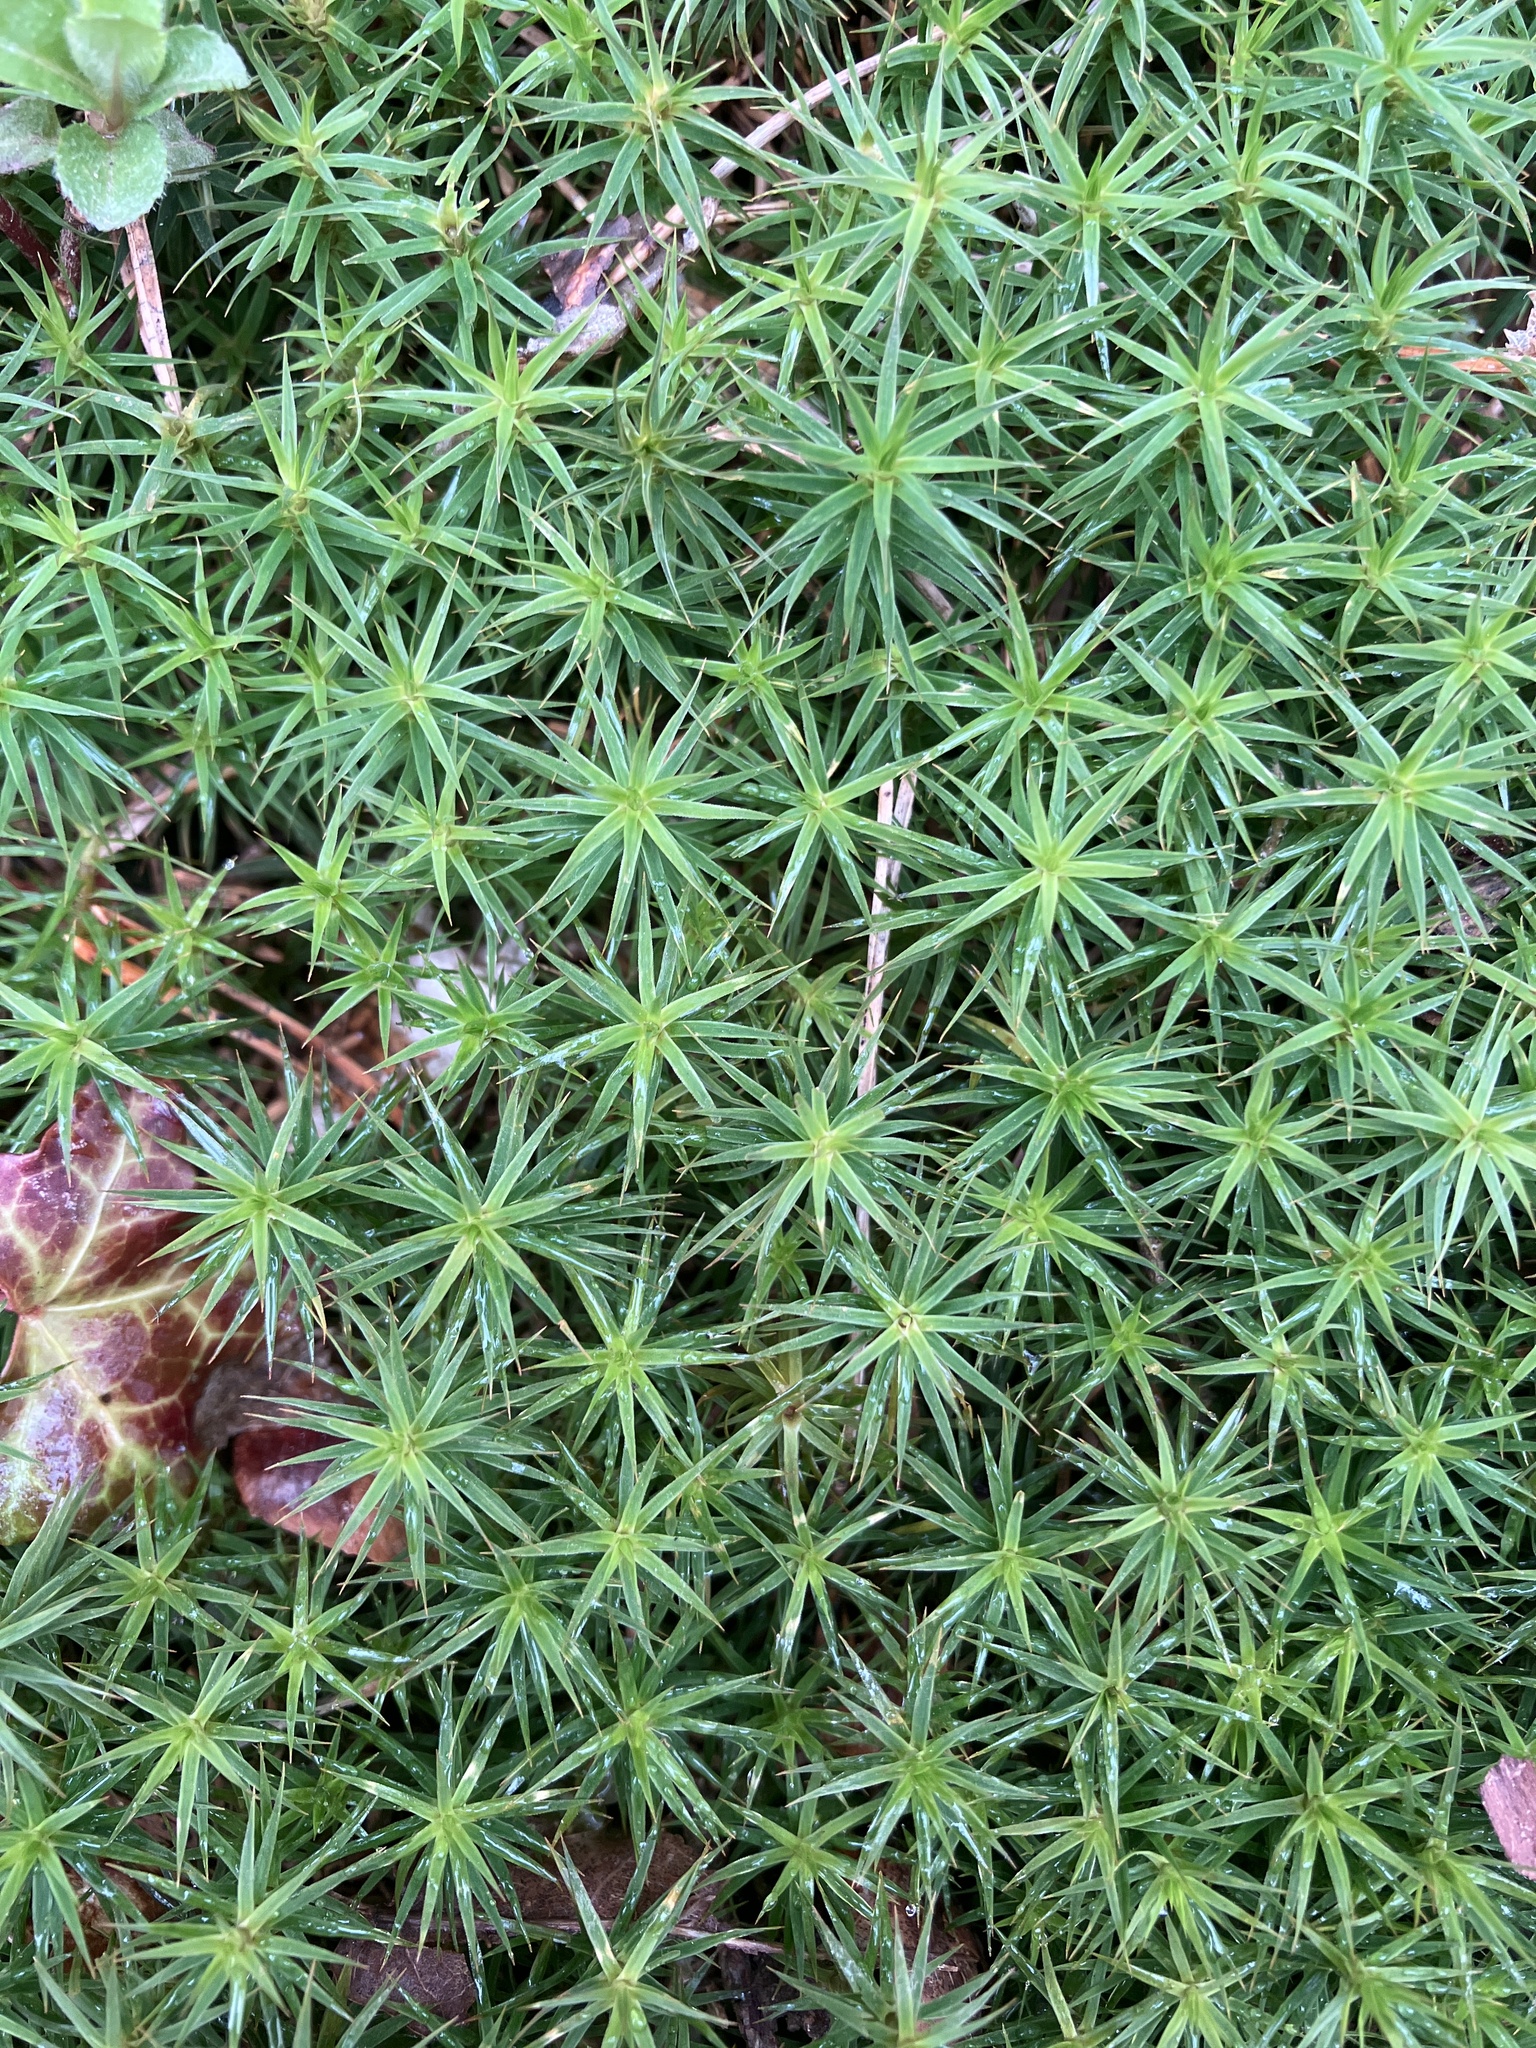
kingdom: Plantae
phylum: Bryophyta
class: Polytrichopsida
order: Polytrichales
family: Polytrichaceae
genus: Polytrichum
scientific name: Polytrichum formosum
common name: Bank haircap moss
